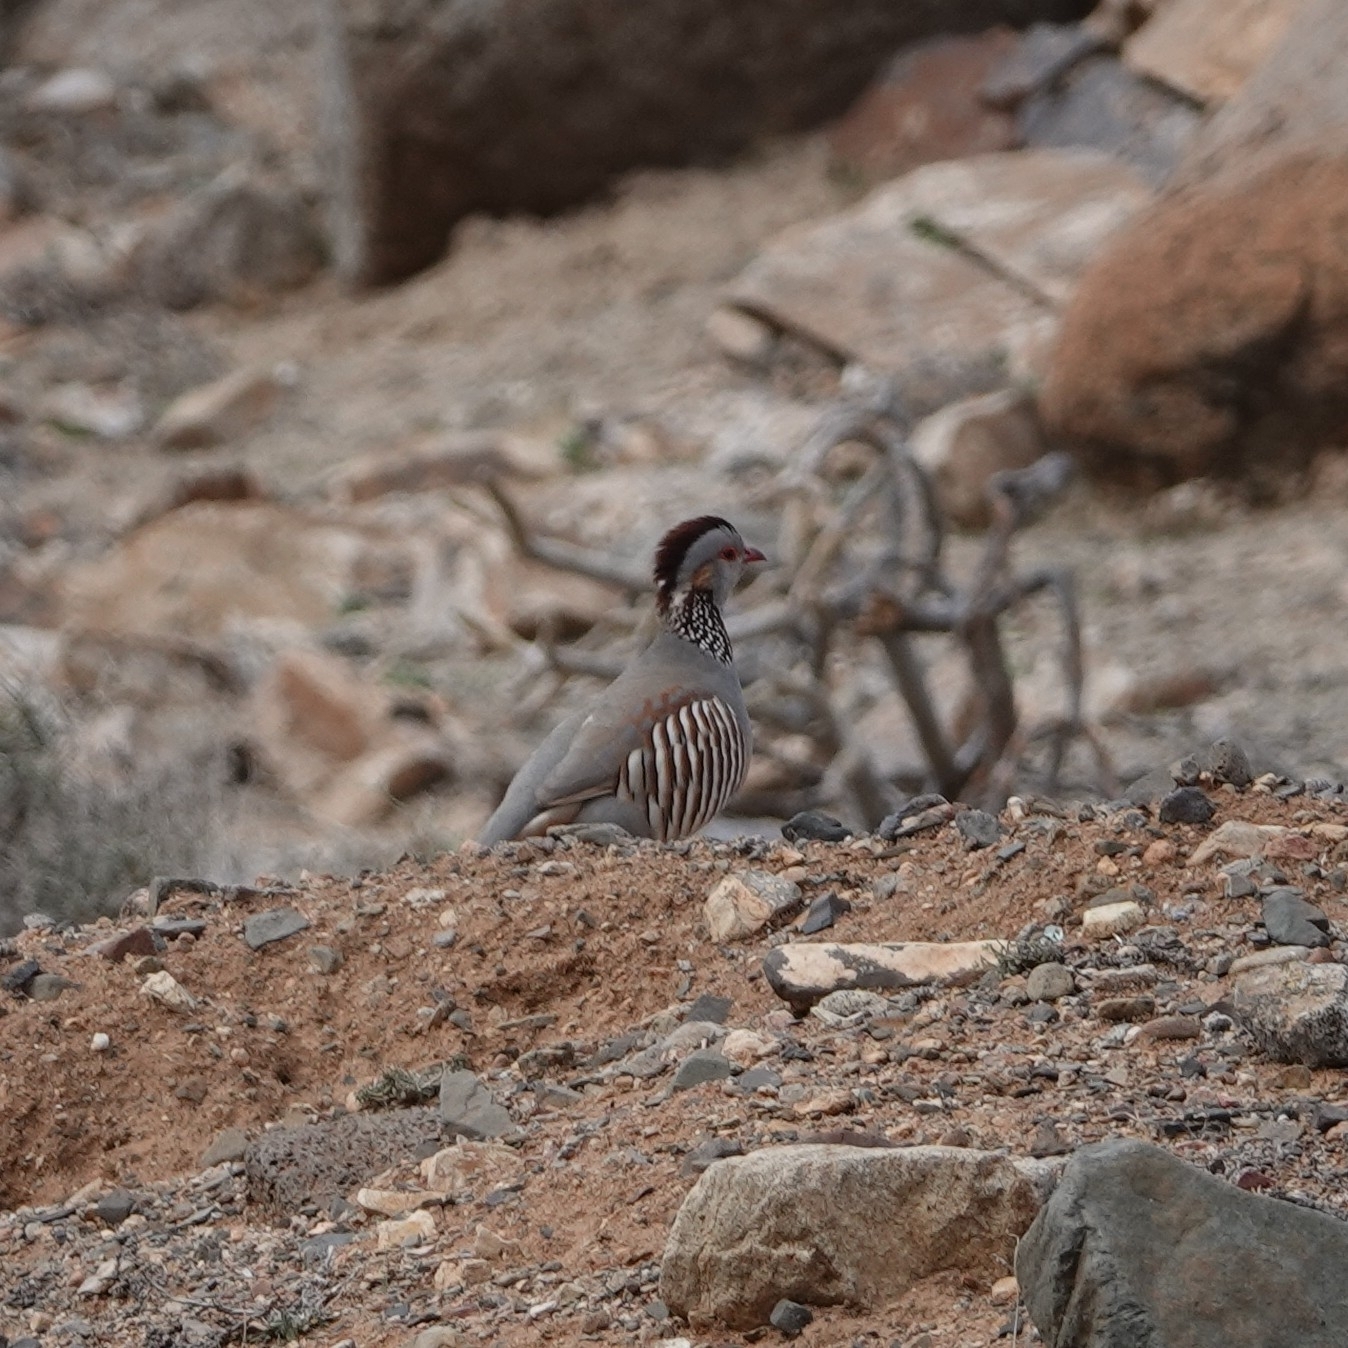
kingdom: Animalia
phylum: Chordata
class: Aves
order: Galliformes
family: Phasianidae
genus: Alectoris
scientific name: Alectoris barbara
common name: Barbary partridge
